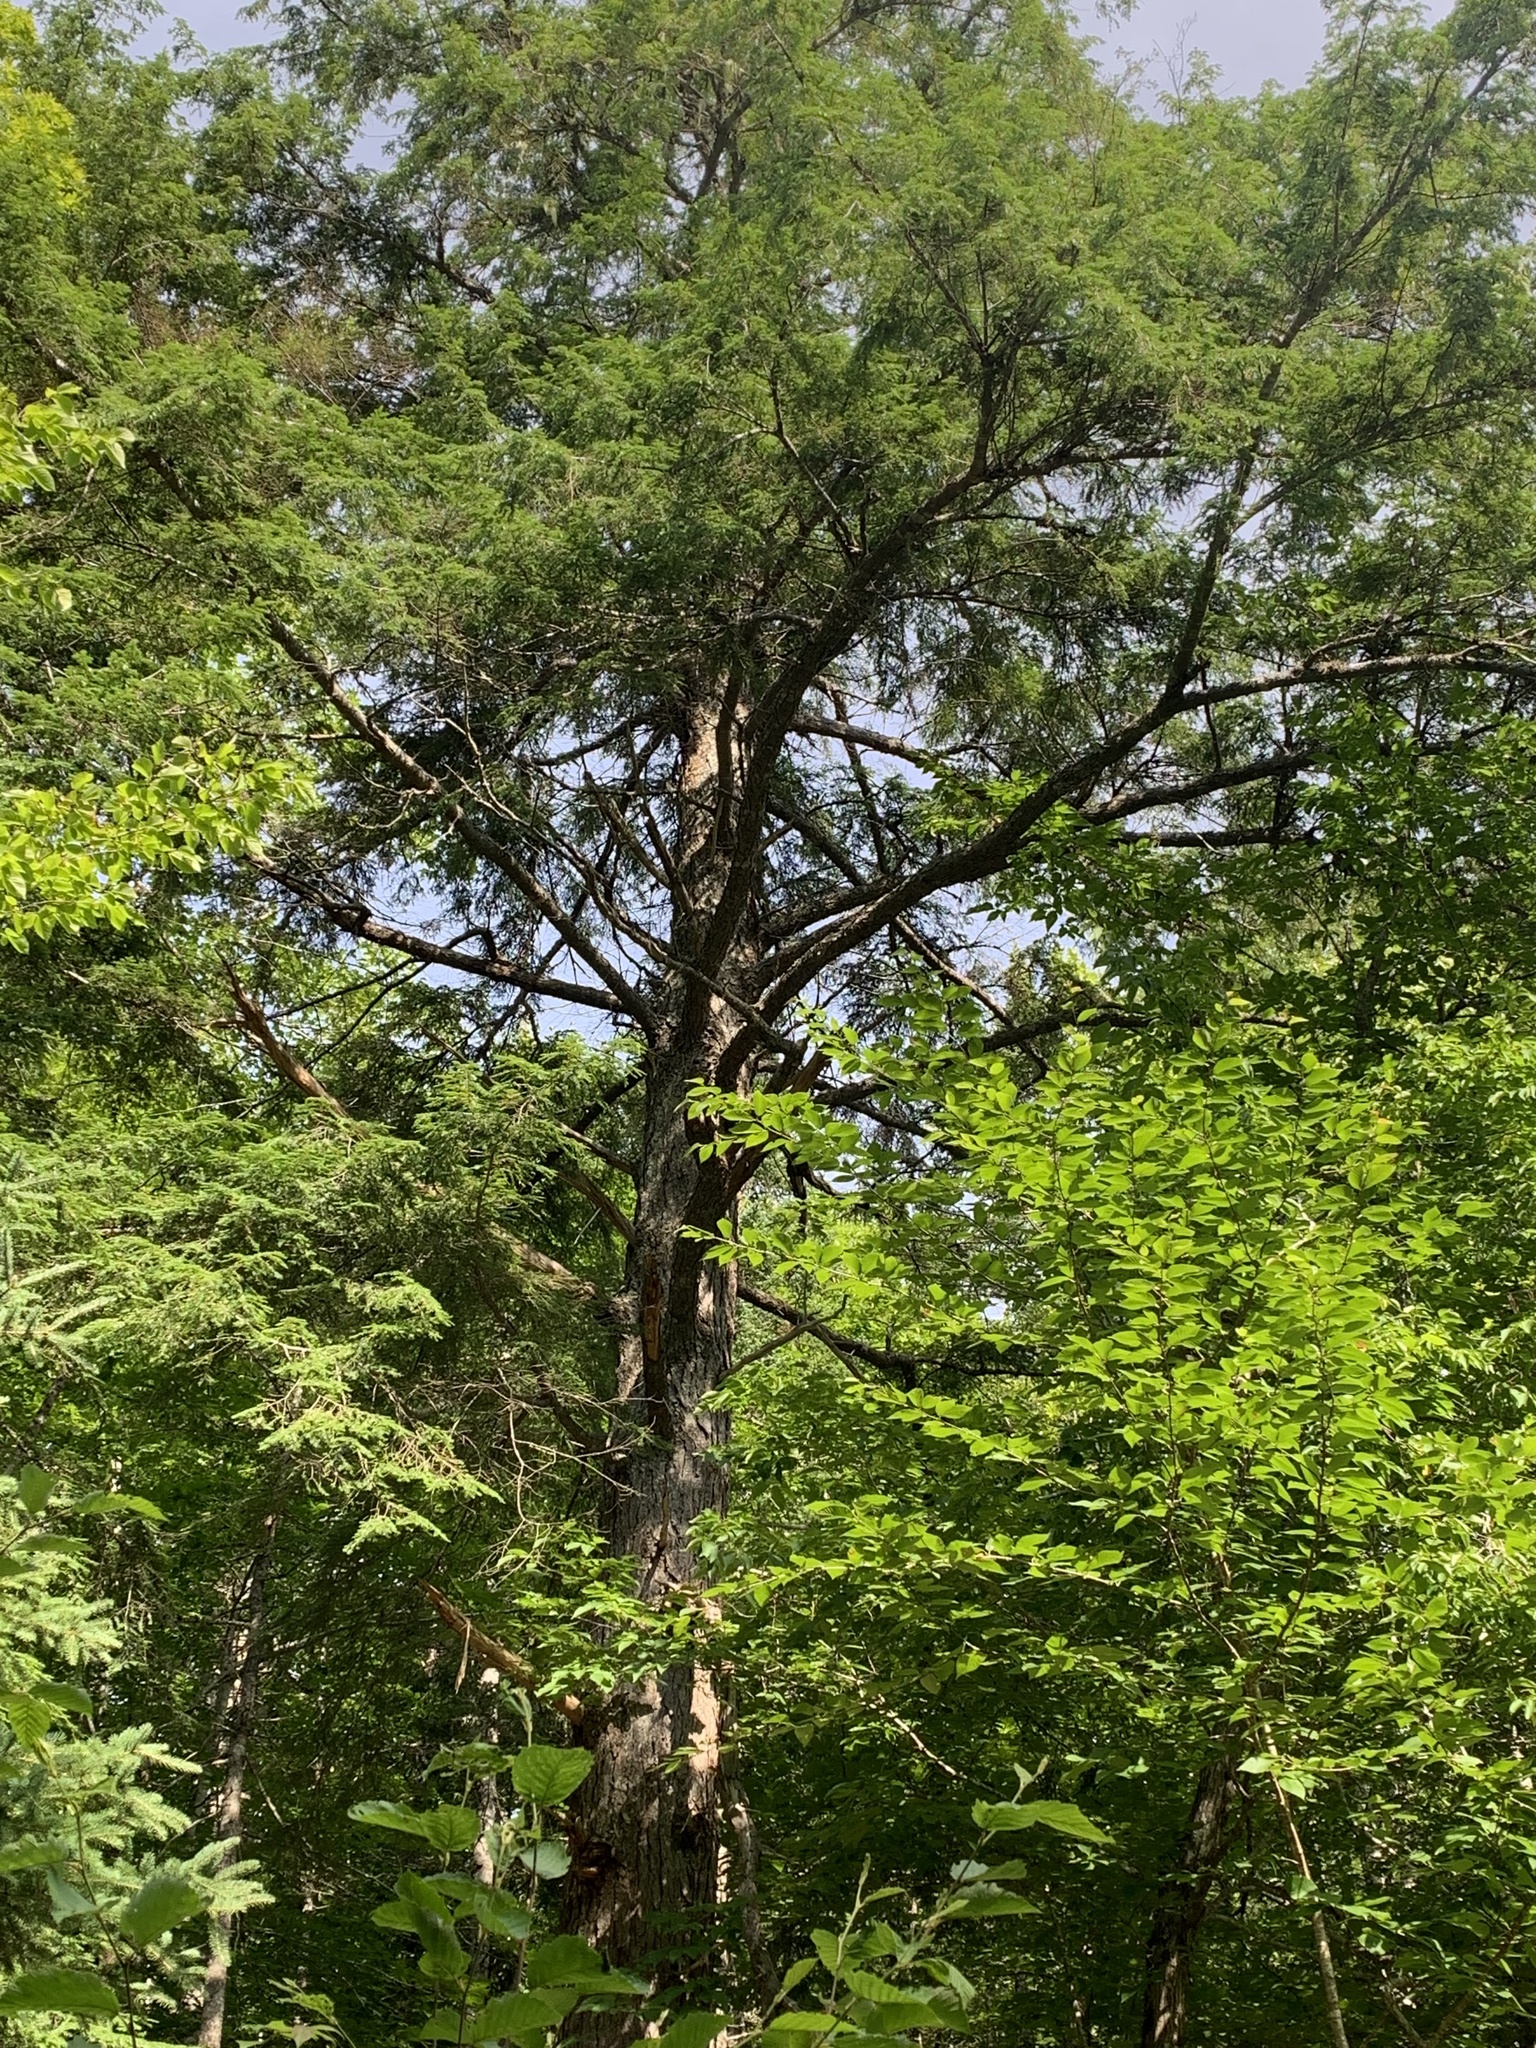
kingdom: Plantae
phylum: Tracheophyta
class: Pinopsida
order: Pinales
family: Pinaceae
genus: Tsuga
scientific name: Tsuga canadensis
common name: Eastern hemlock
